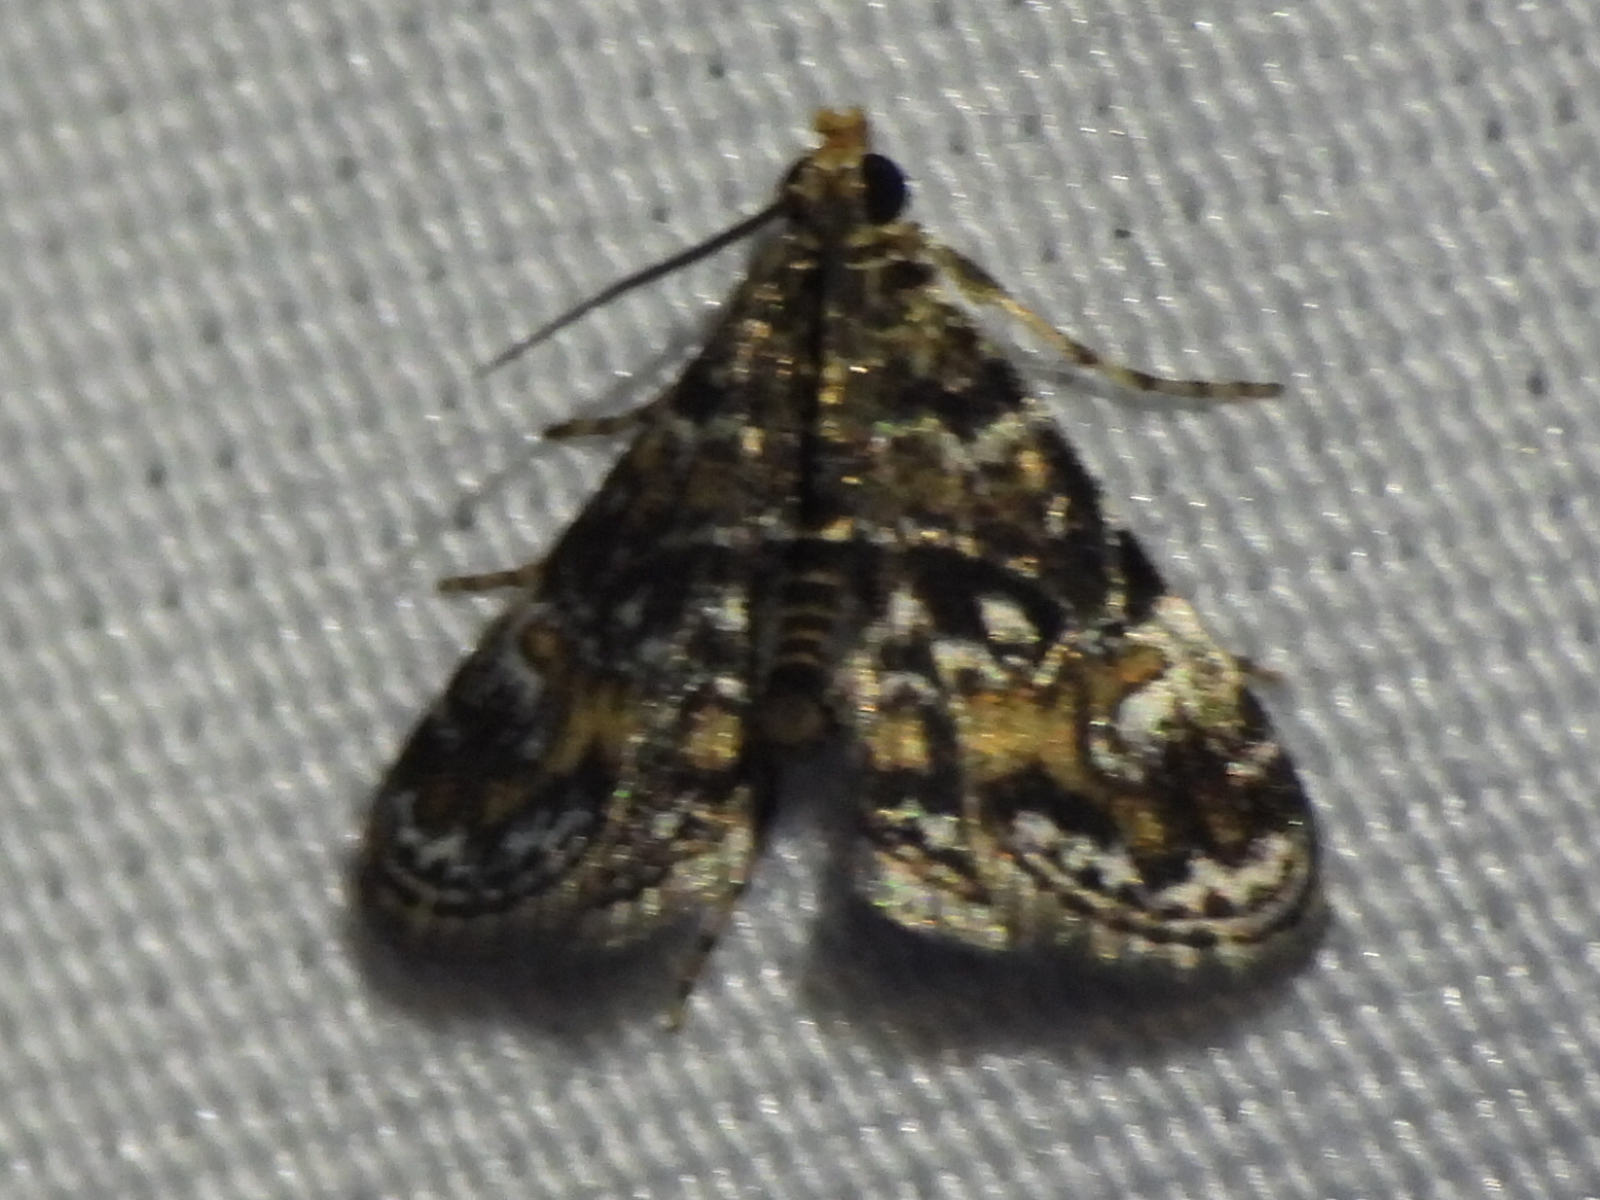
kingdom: Animalia
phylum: Arthropoda
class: Insecta
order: Lepidoptera
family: Crambidae
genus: Elophila
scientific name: Elophila obliteralis
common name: Waterlily leafcutter moth
